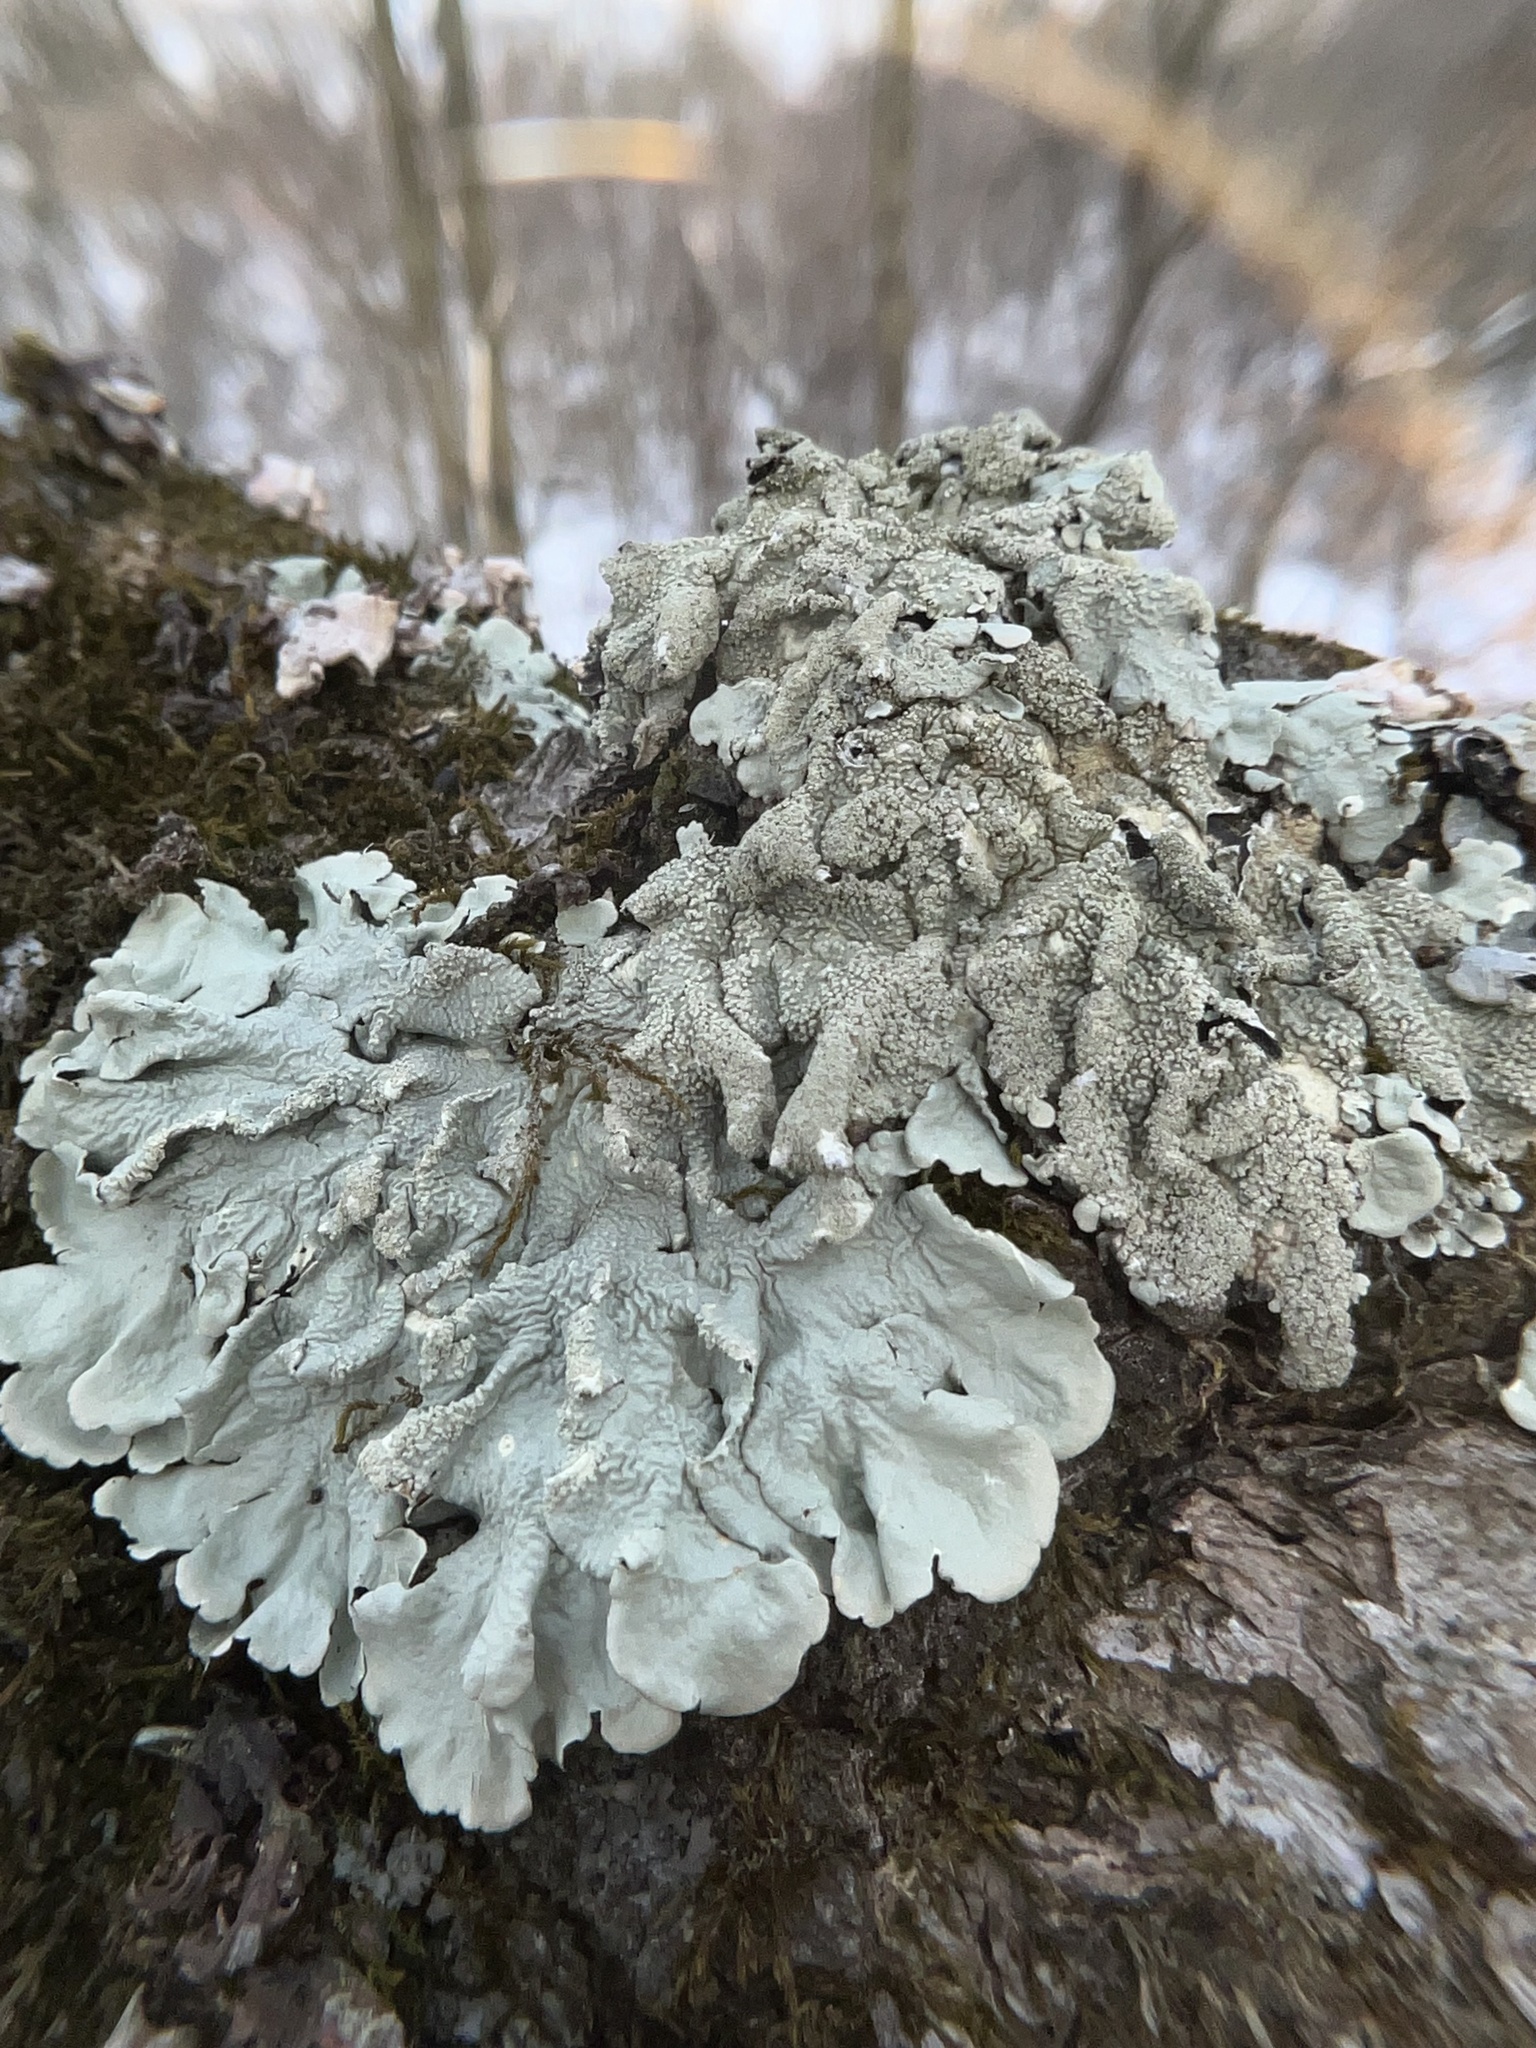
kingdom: Fungi
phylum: Ascomycota
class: Lecanoromycetes
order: Lecanorales
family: Parmeliaceae
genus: Flavoparmelia
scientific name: Flavoparmelia caperata
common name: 40-mile per hour lichen
